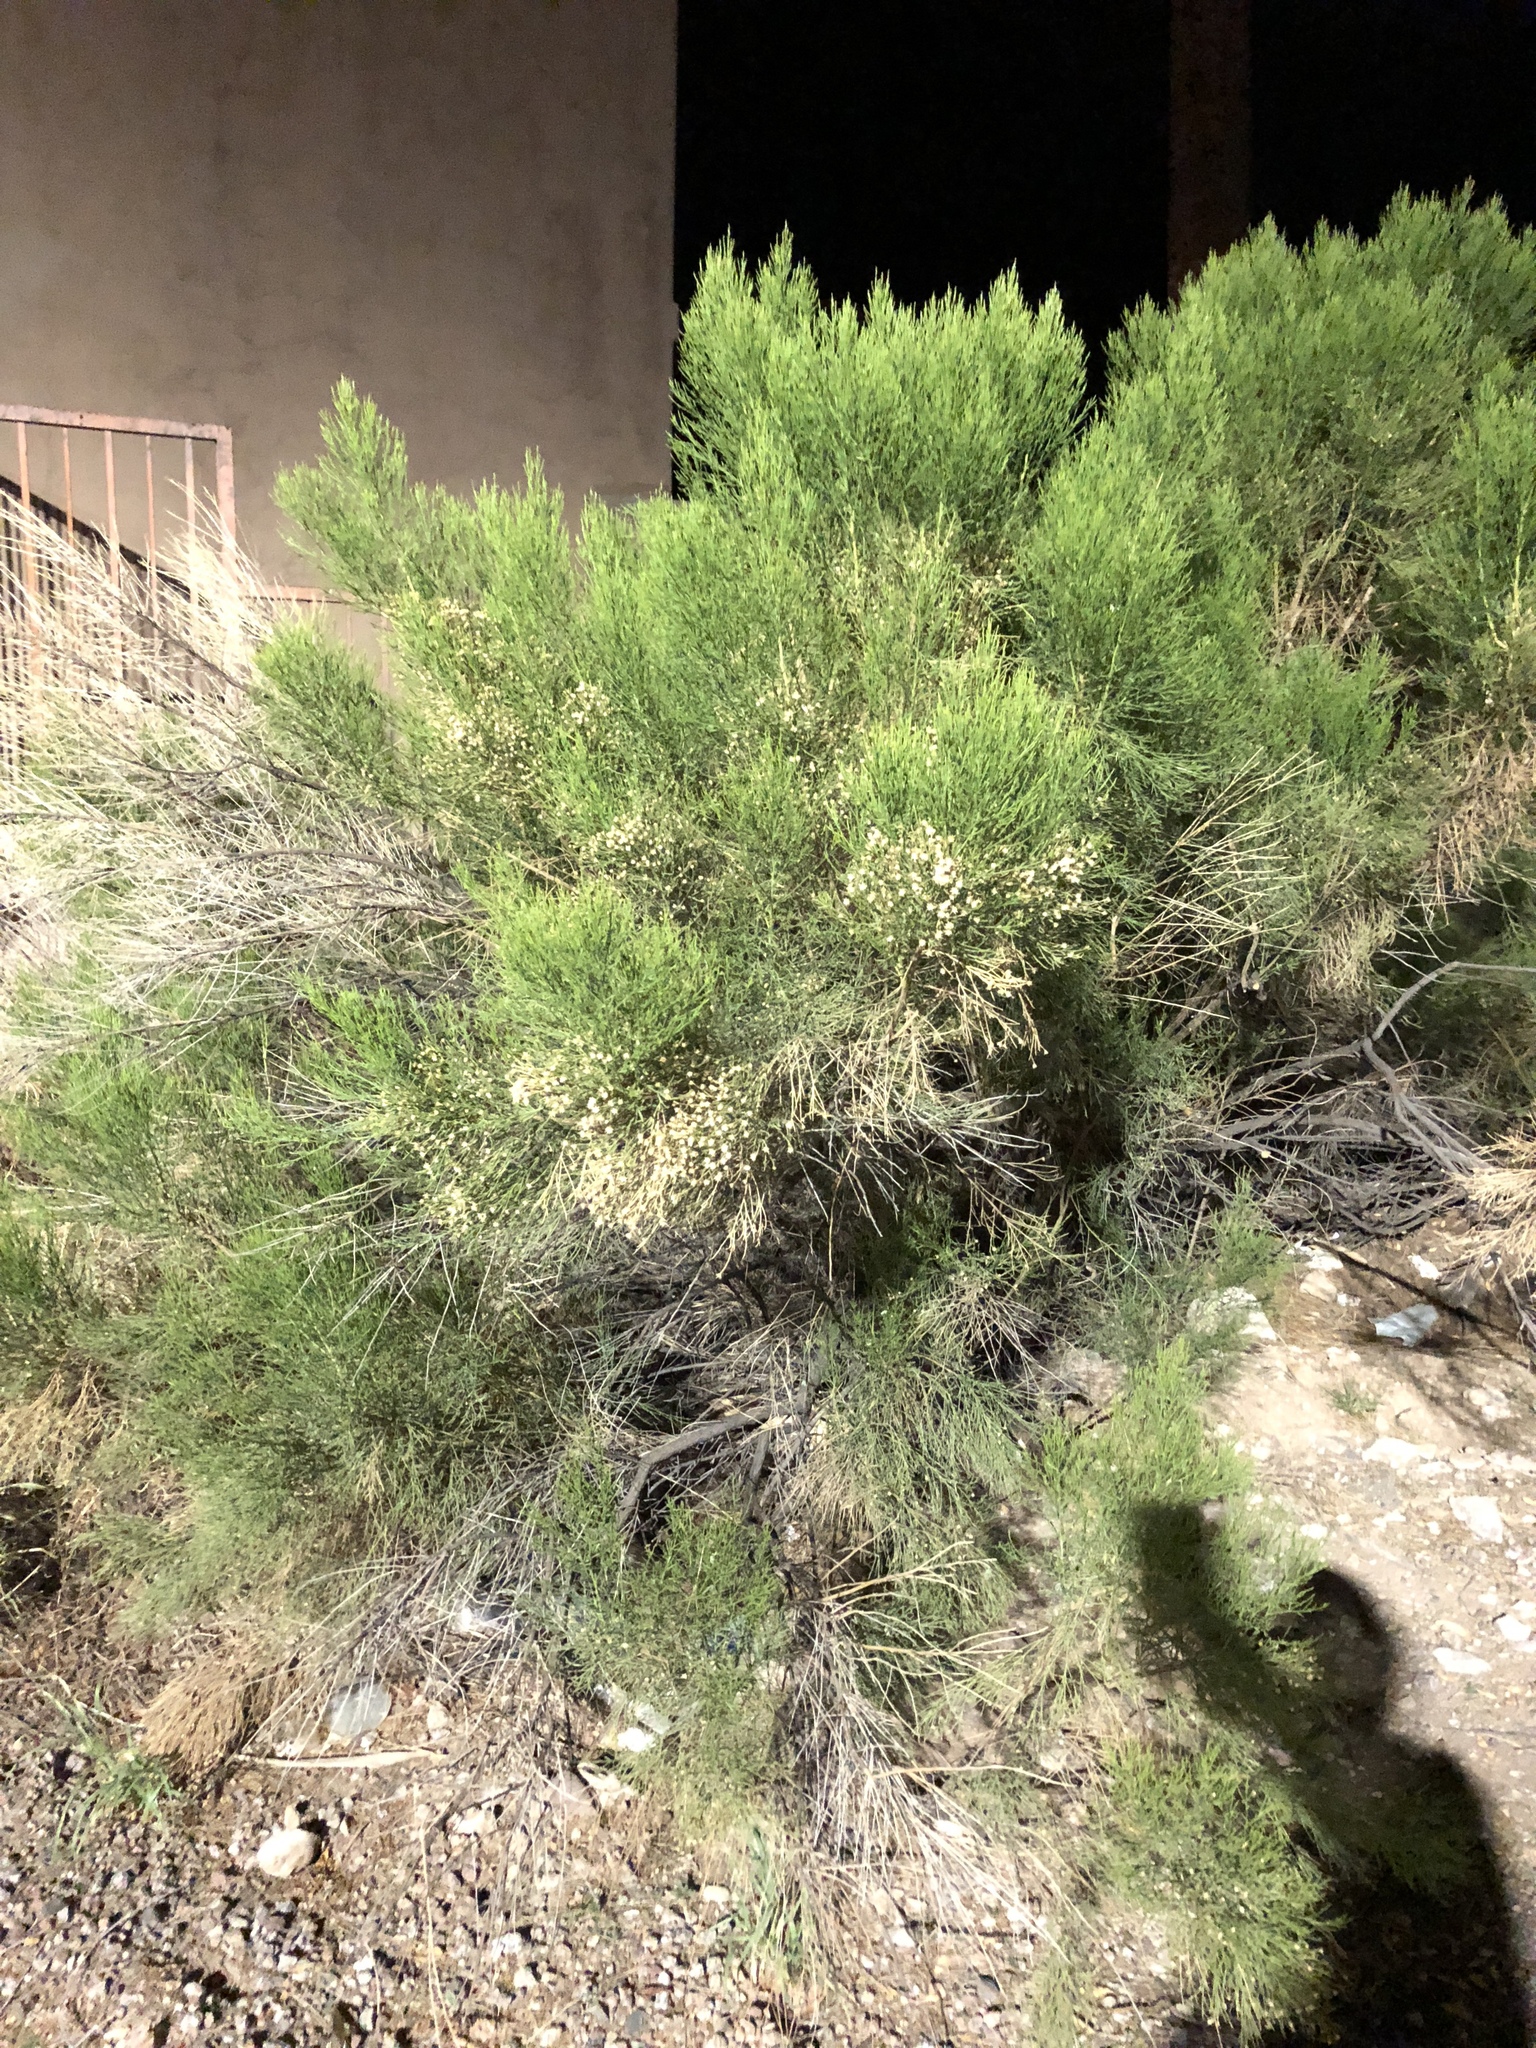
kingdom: Plantae
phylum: Tracheophyta
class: Magnoliopsida
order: Asterales
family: Asteraceae
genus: Baccharis
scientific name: Baccharis sarothroides
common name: Desert-broom
